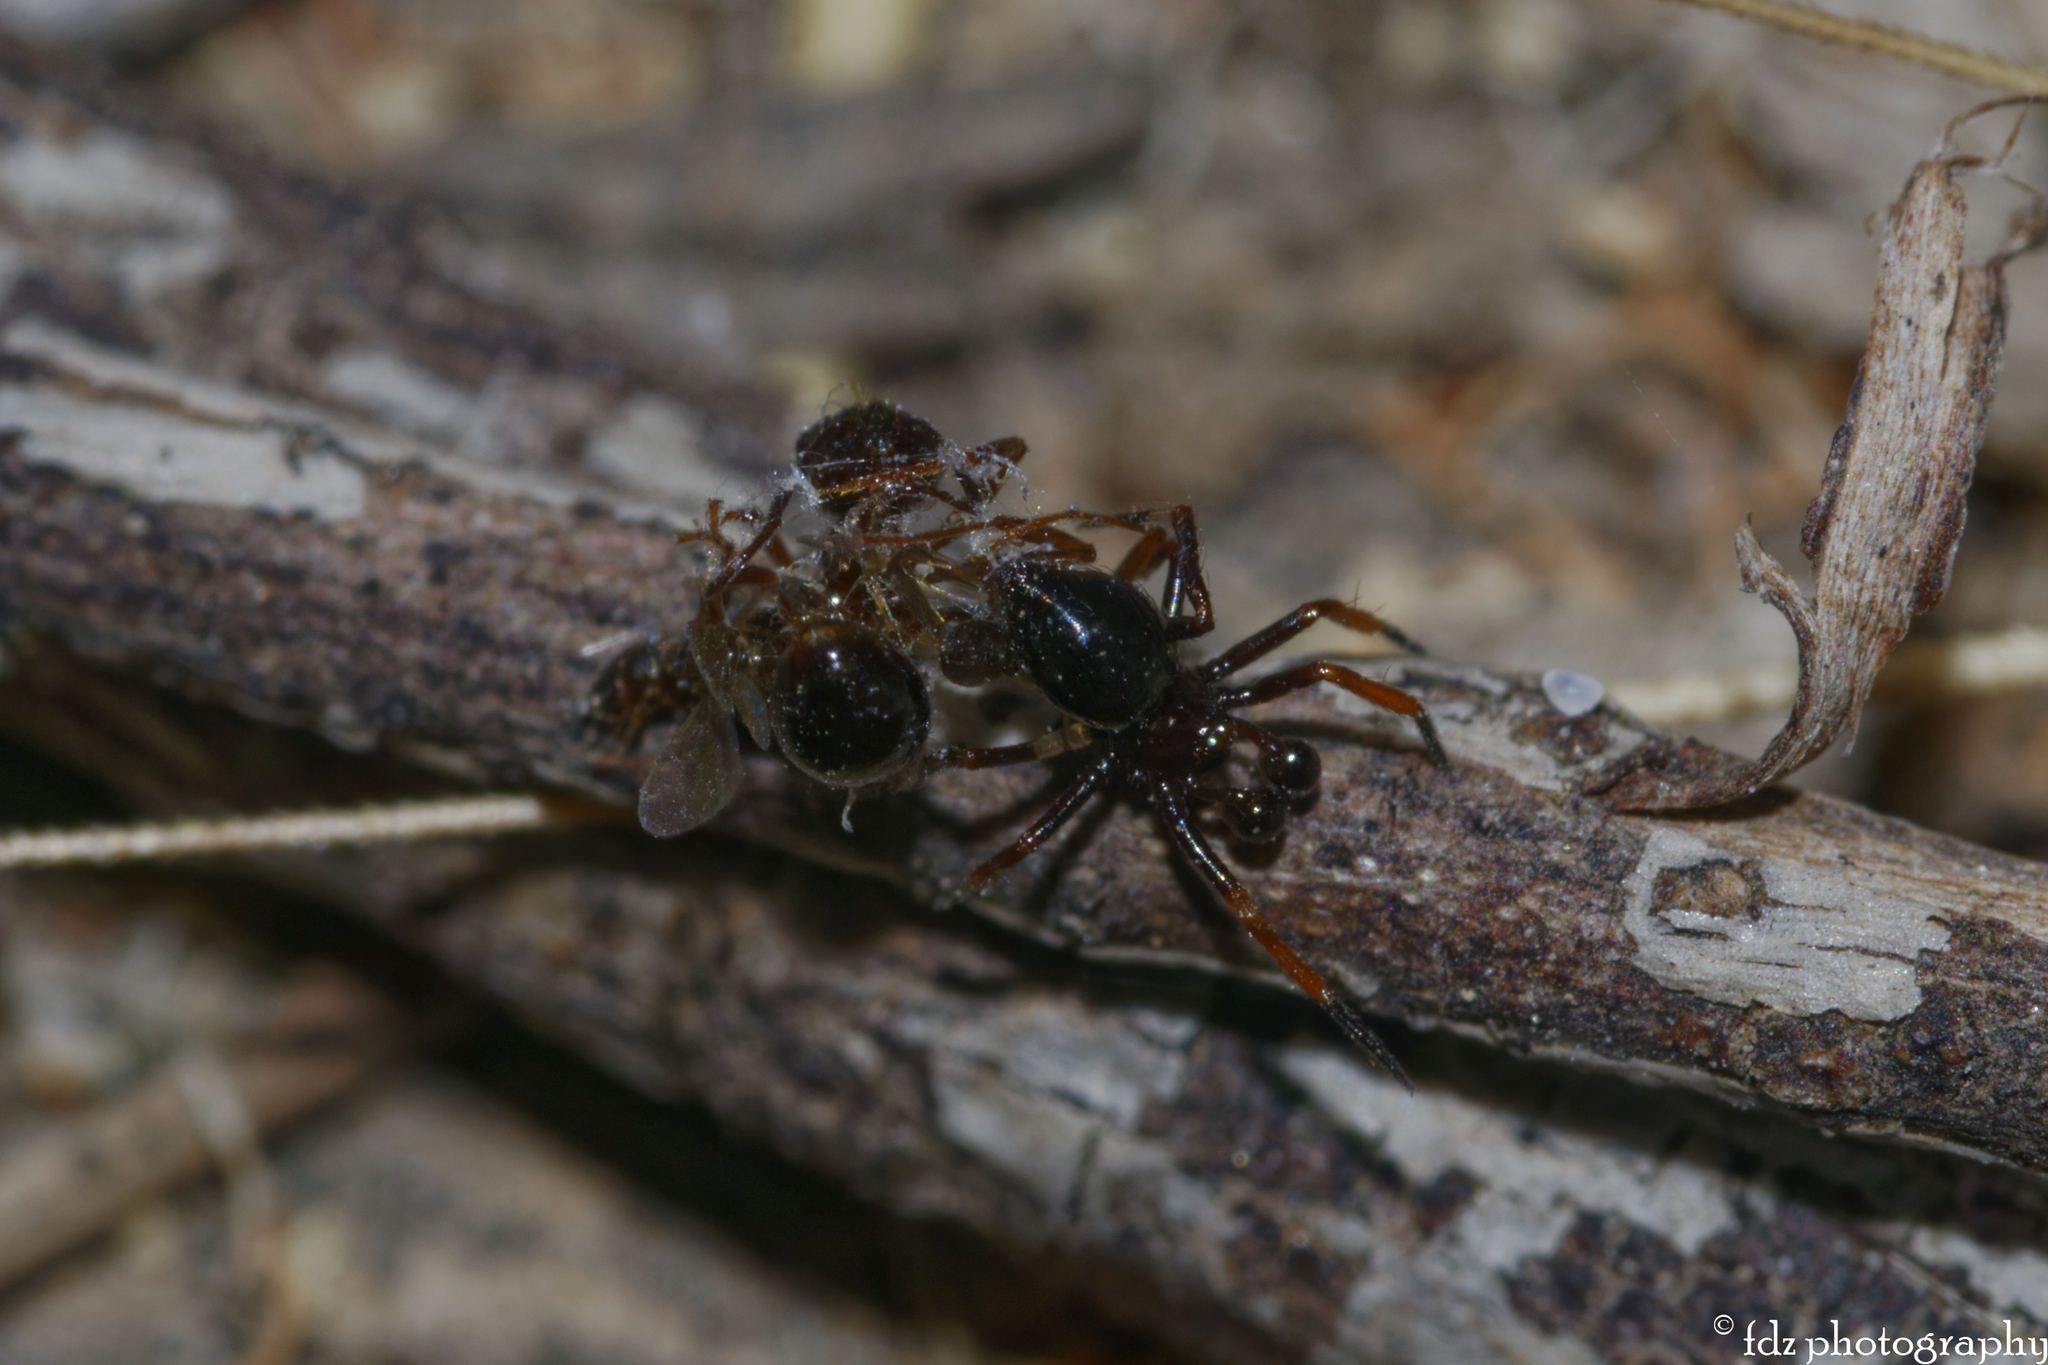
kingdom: Animalia
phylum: Arthropoda
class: Arachnida
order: Araneae
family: Theridiidae
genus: Euryopis
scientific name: Euryopis episinoides
